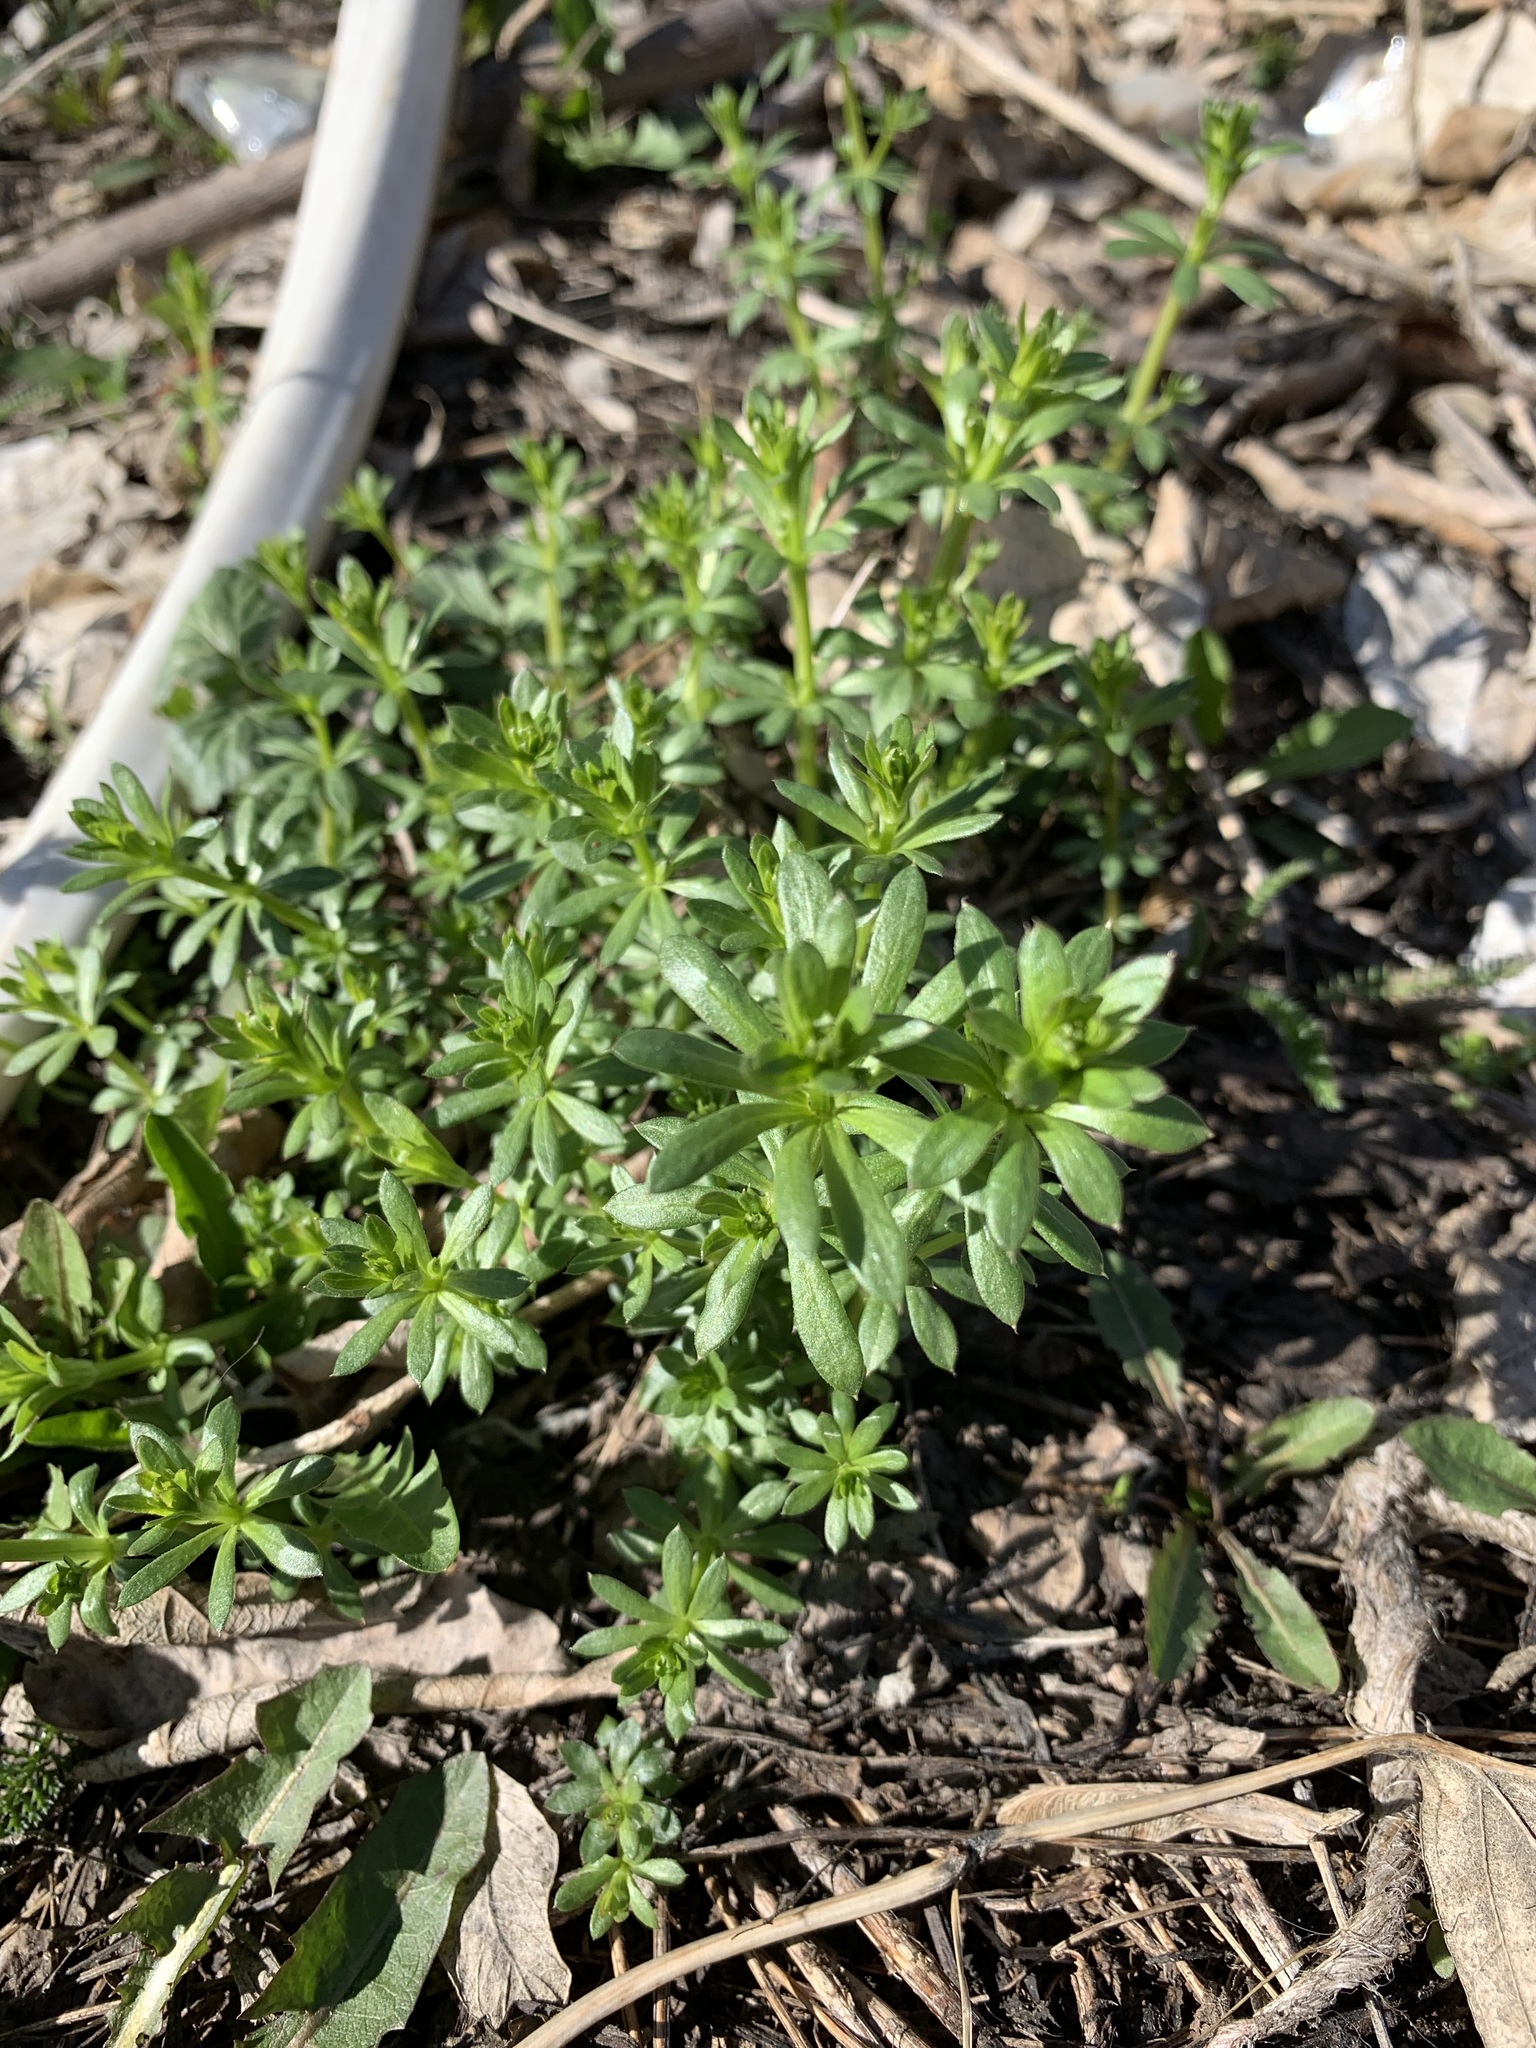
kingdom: Plantae
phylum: Tracheophyta
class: Magnoliopsida
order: Gentianales
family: Rubiaceae
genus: Galium
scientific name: Galium mollugo
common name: Hedge bedstraw
